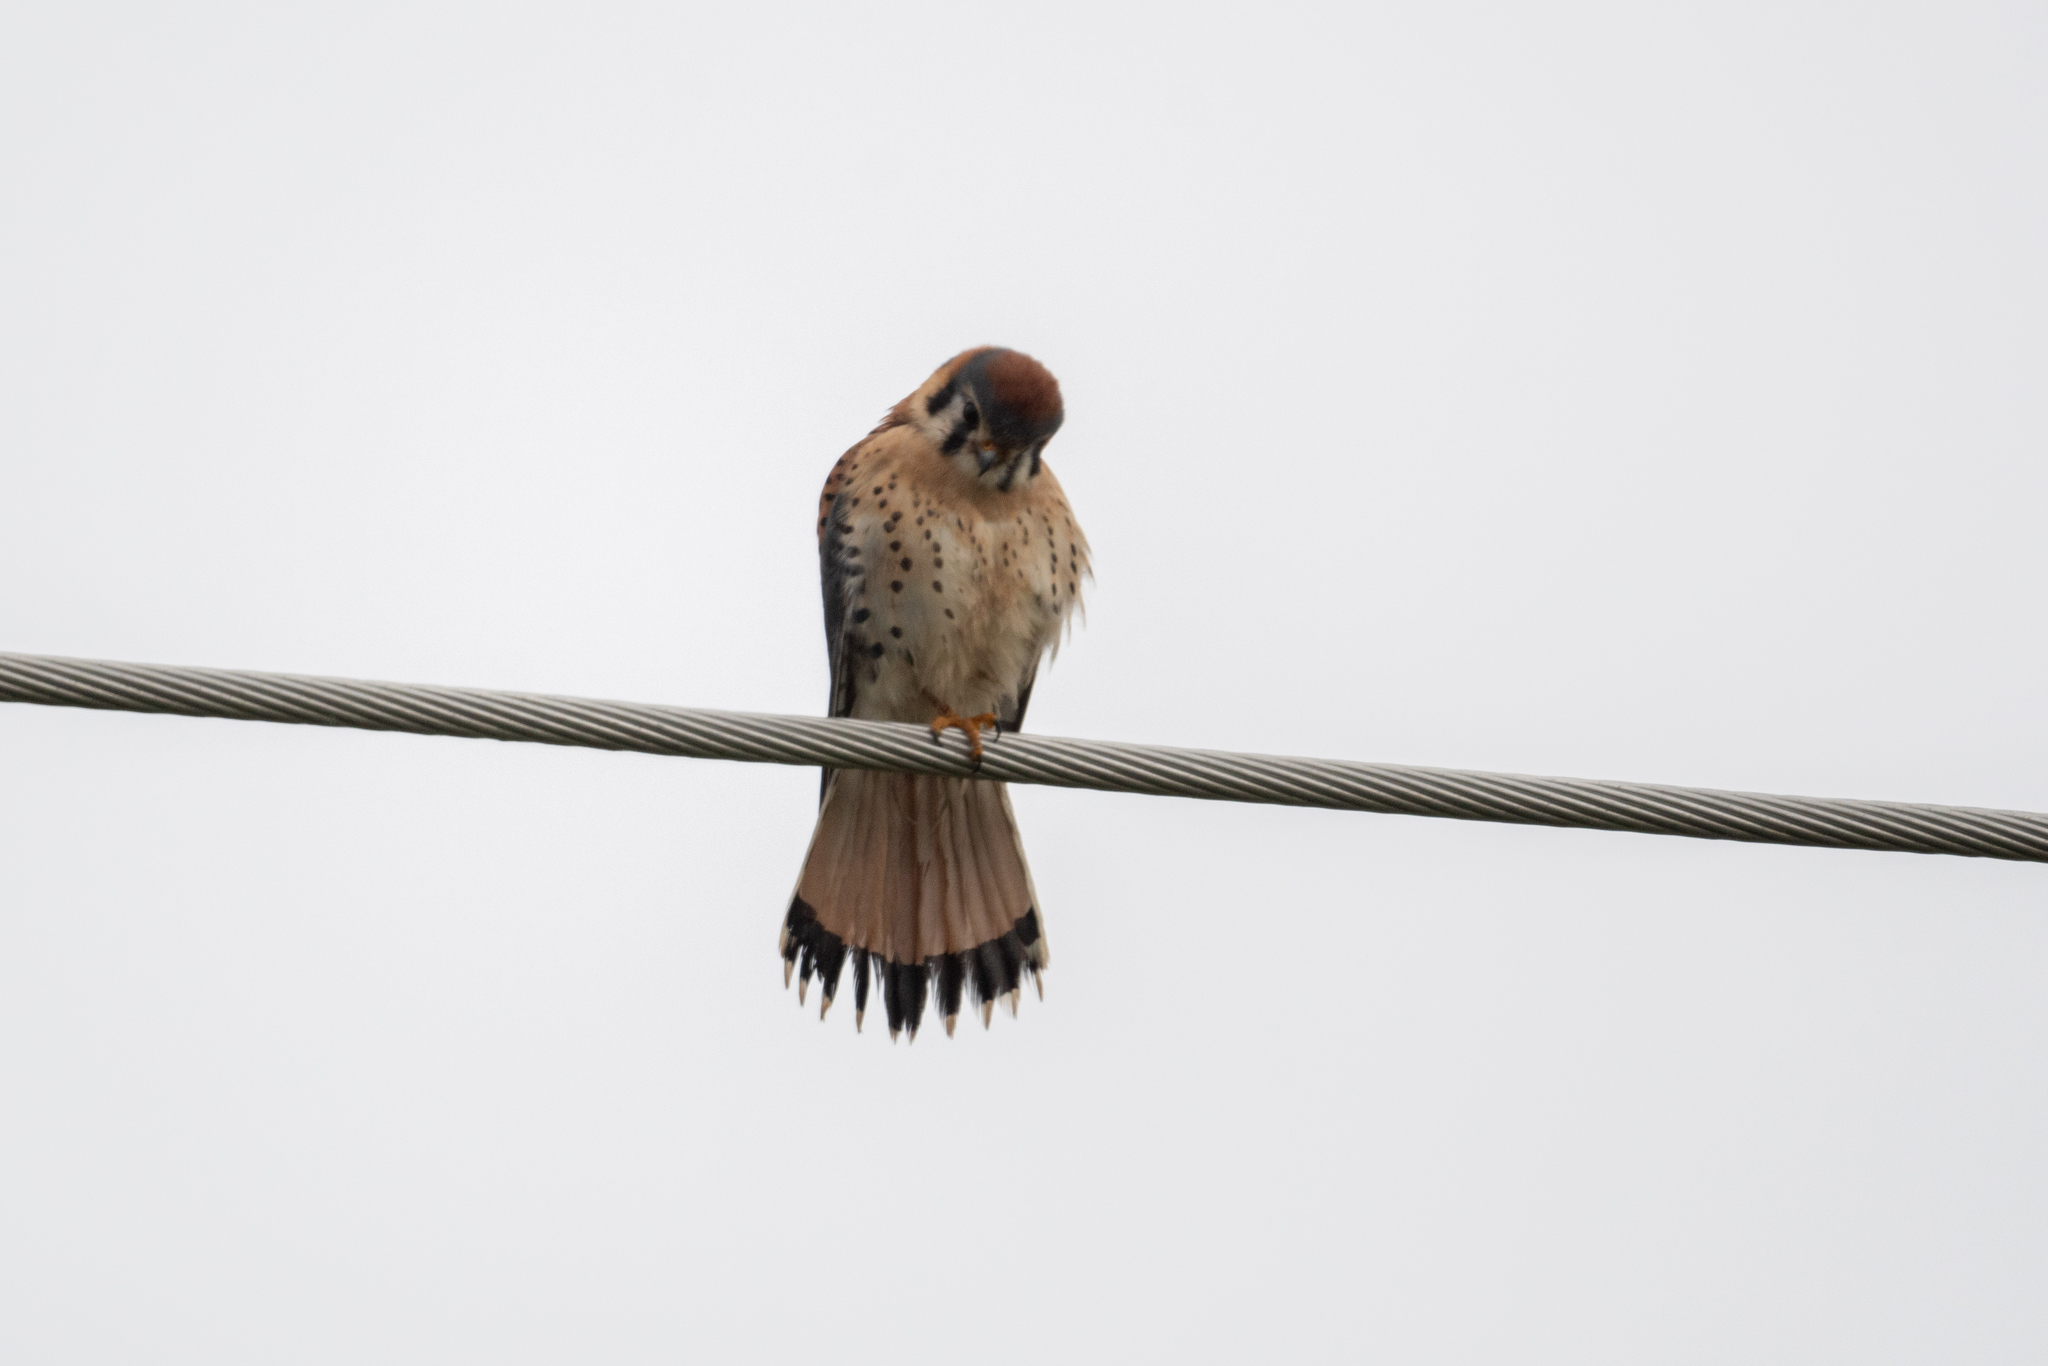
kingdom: Animalia
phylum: Chordata
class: Aves
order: Falconiformes
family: Falconidae
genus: Falco
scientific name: Falco sparverius
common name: American kestrel
